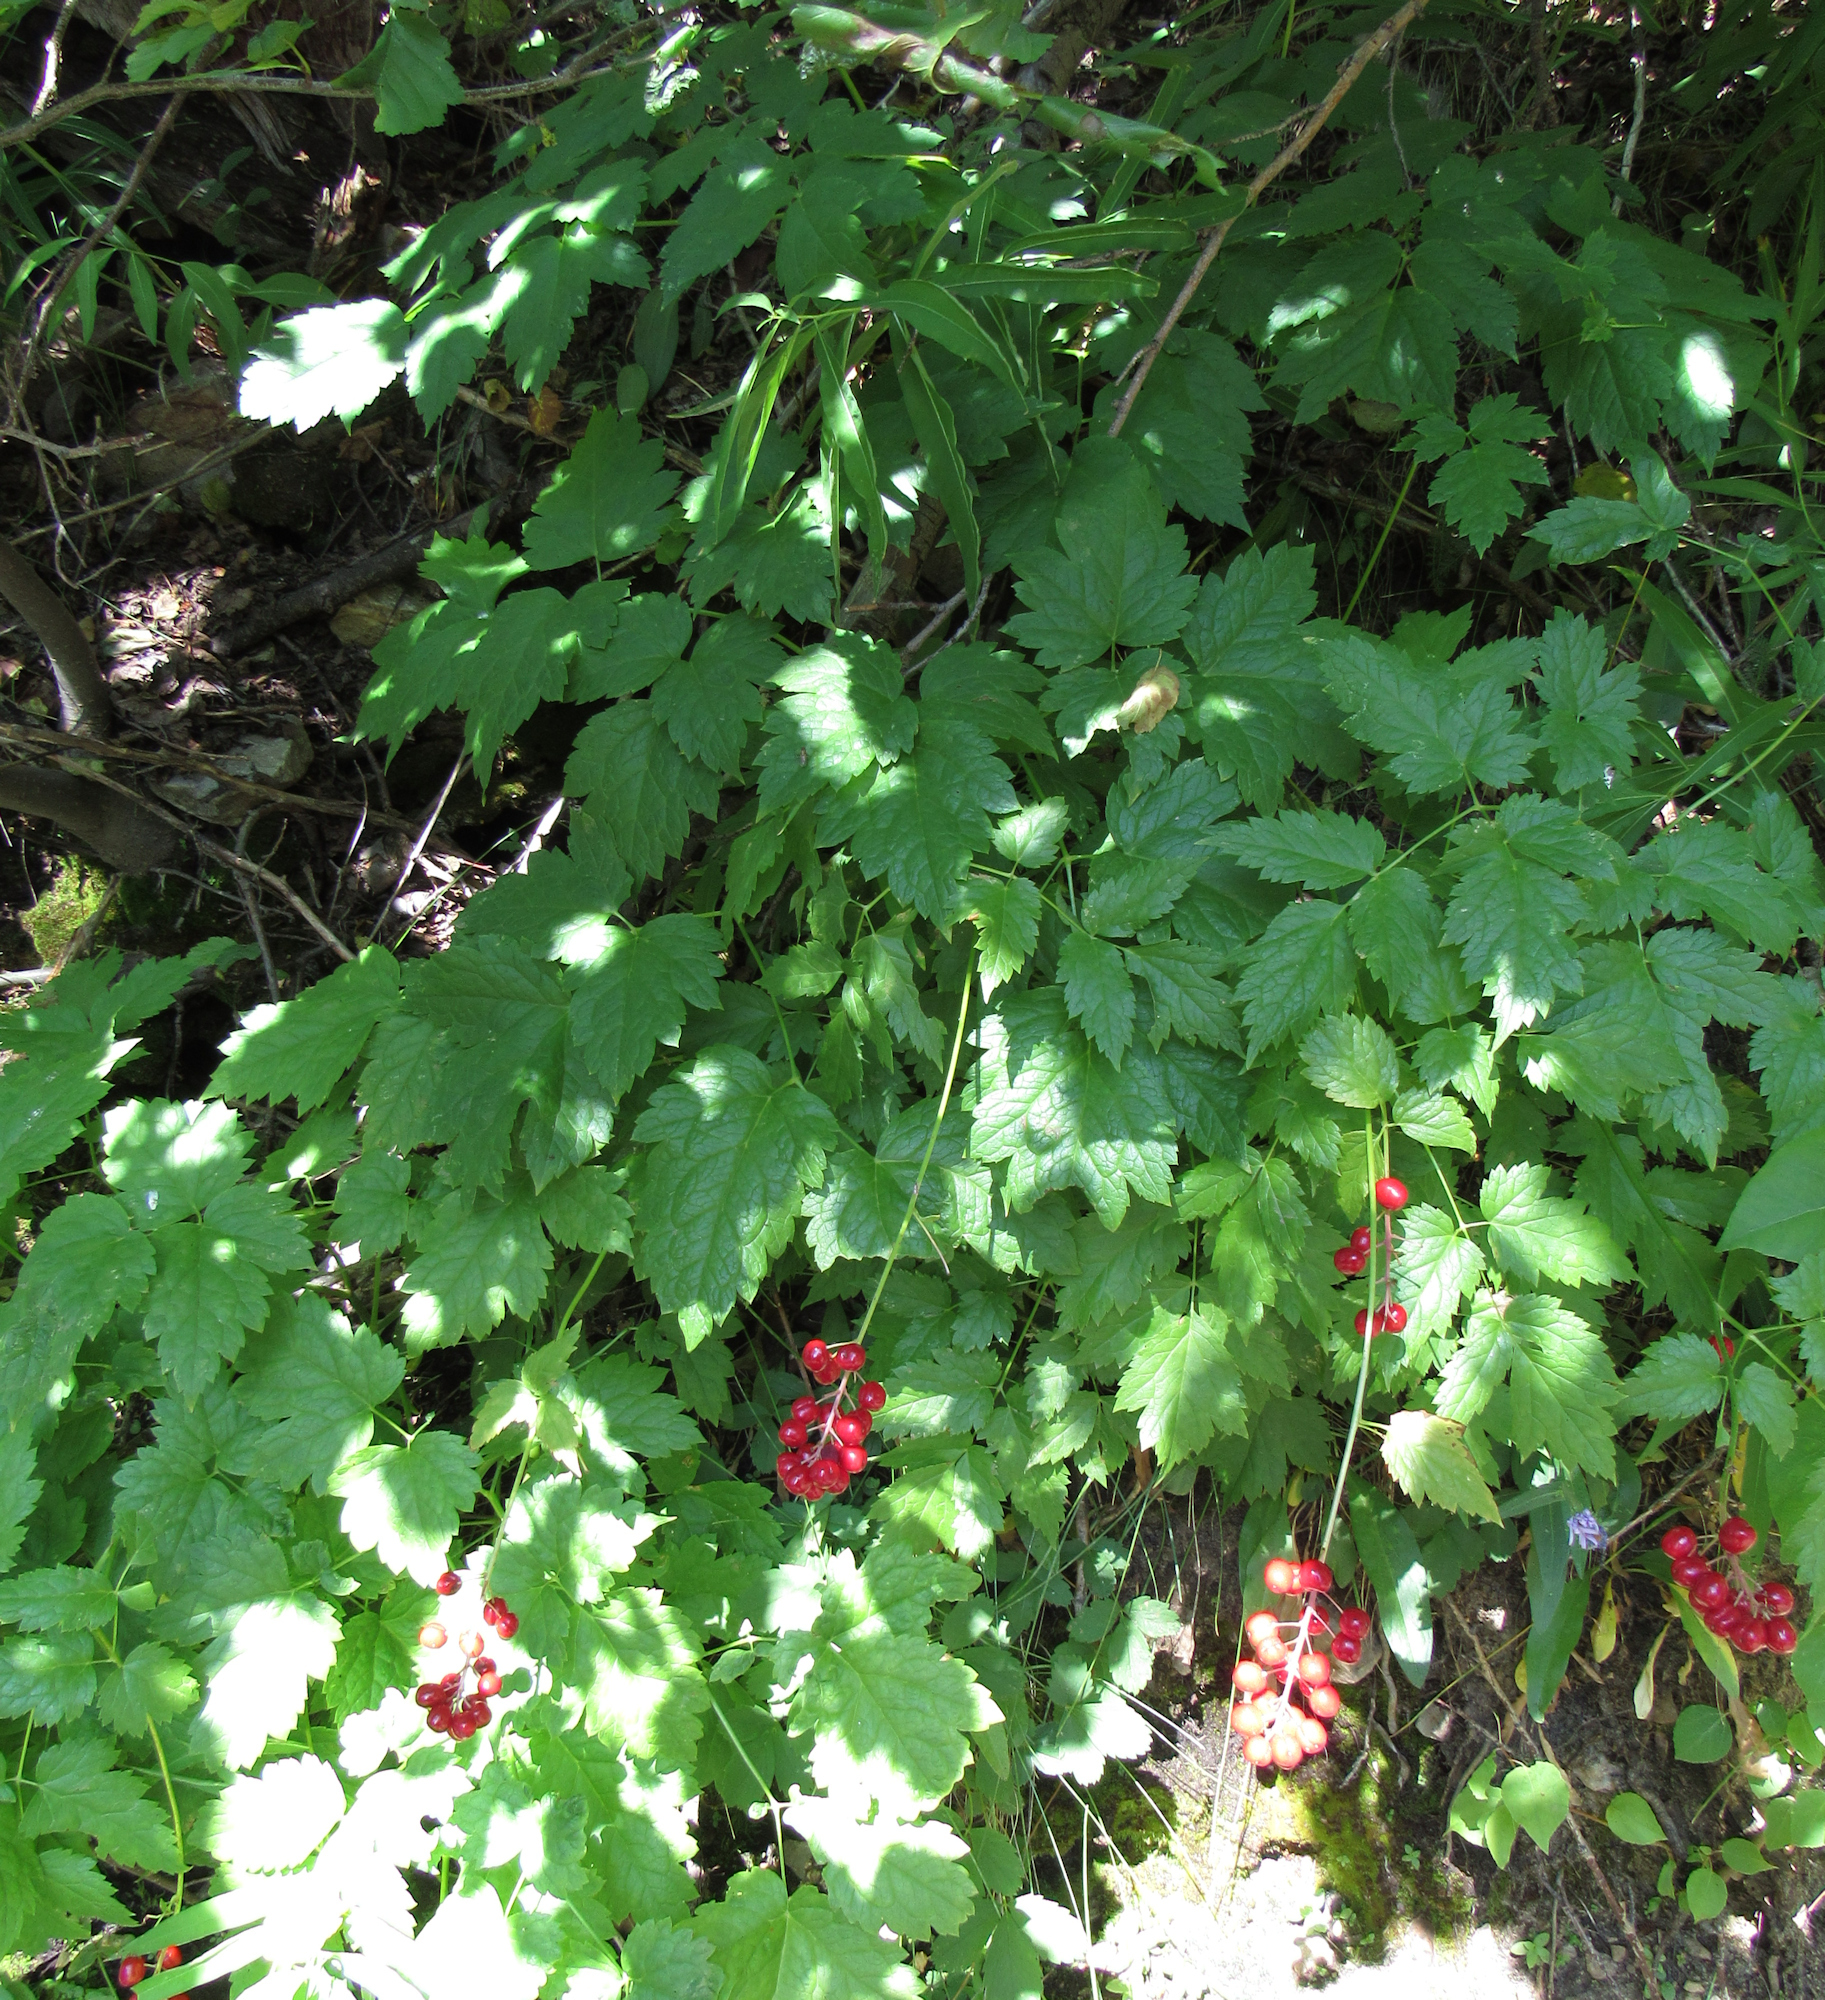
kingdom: Plantae
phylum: Tracheophyta
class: Magnoliopsida
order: Ranunculales
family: Ranunculaceae
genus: Actaea
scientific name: Actaea rubra
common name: Red baneberry
